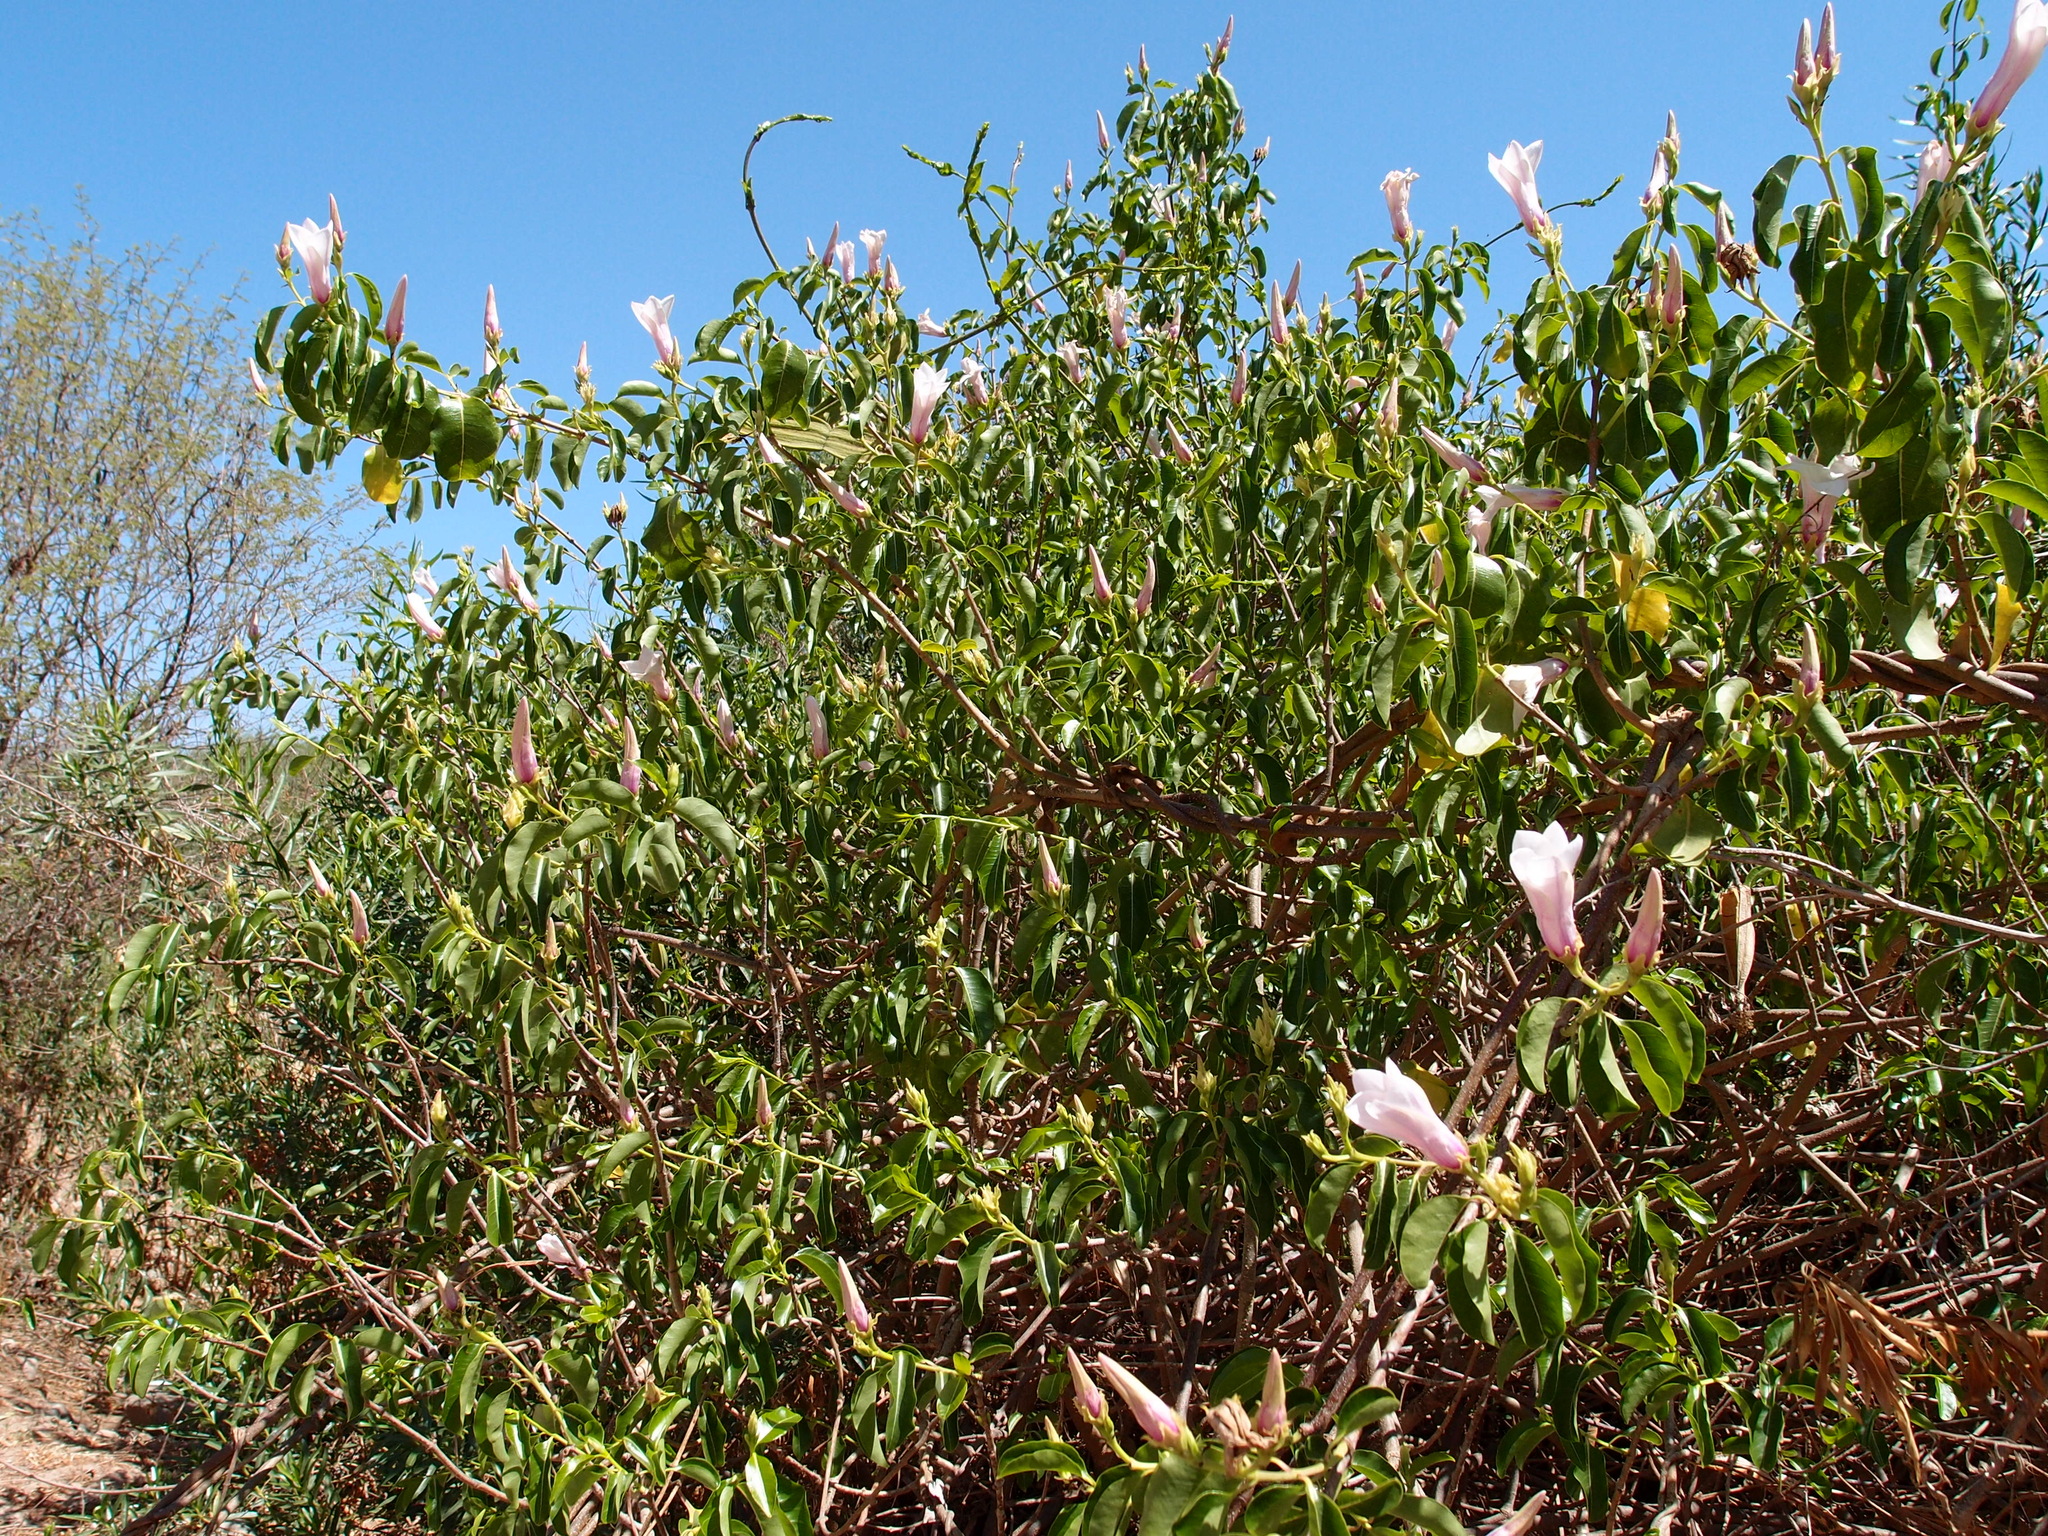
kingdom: Plantae
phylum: Tracheophyta
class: Magnoliopsida
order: Gentianales
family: Apocynaceae
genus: Cryptostegia
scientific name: Cryptostegia grandiflora
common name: Palay rubbervine
